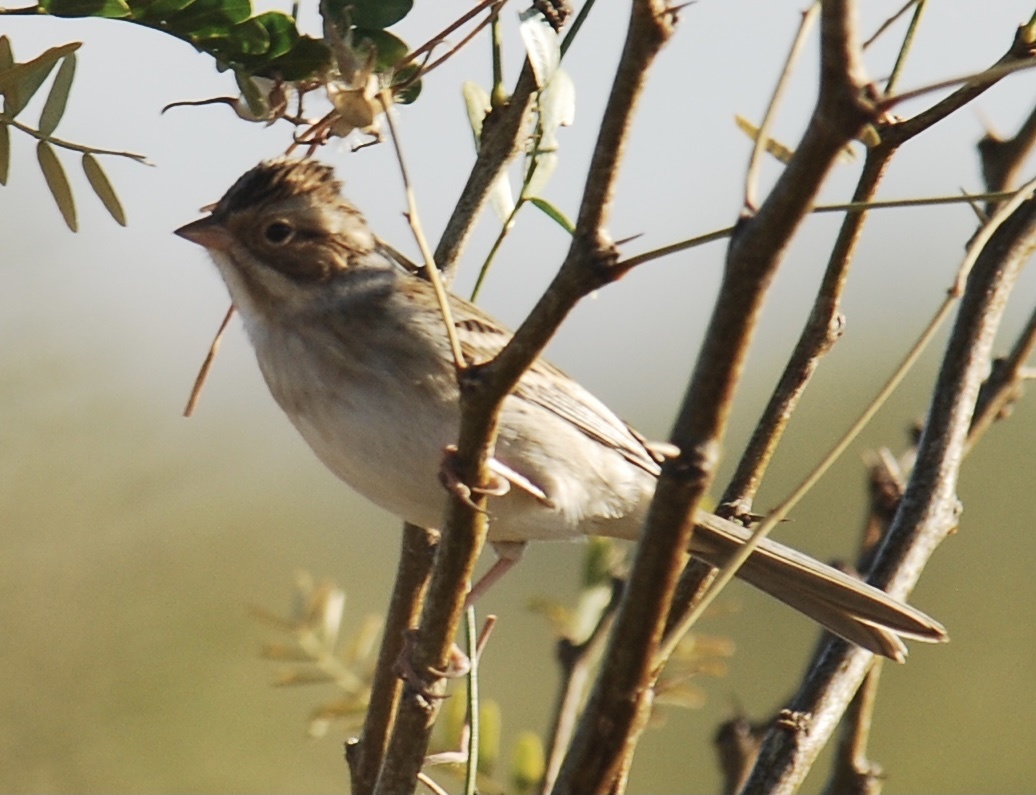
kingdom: Animalia
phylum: Chordata
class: Aves
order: Passeriformes
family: Passerellidae
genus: Spizella
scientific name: Spizella pallida
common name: Clay-colored sparrow
